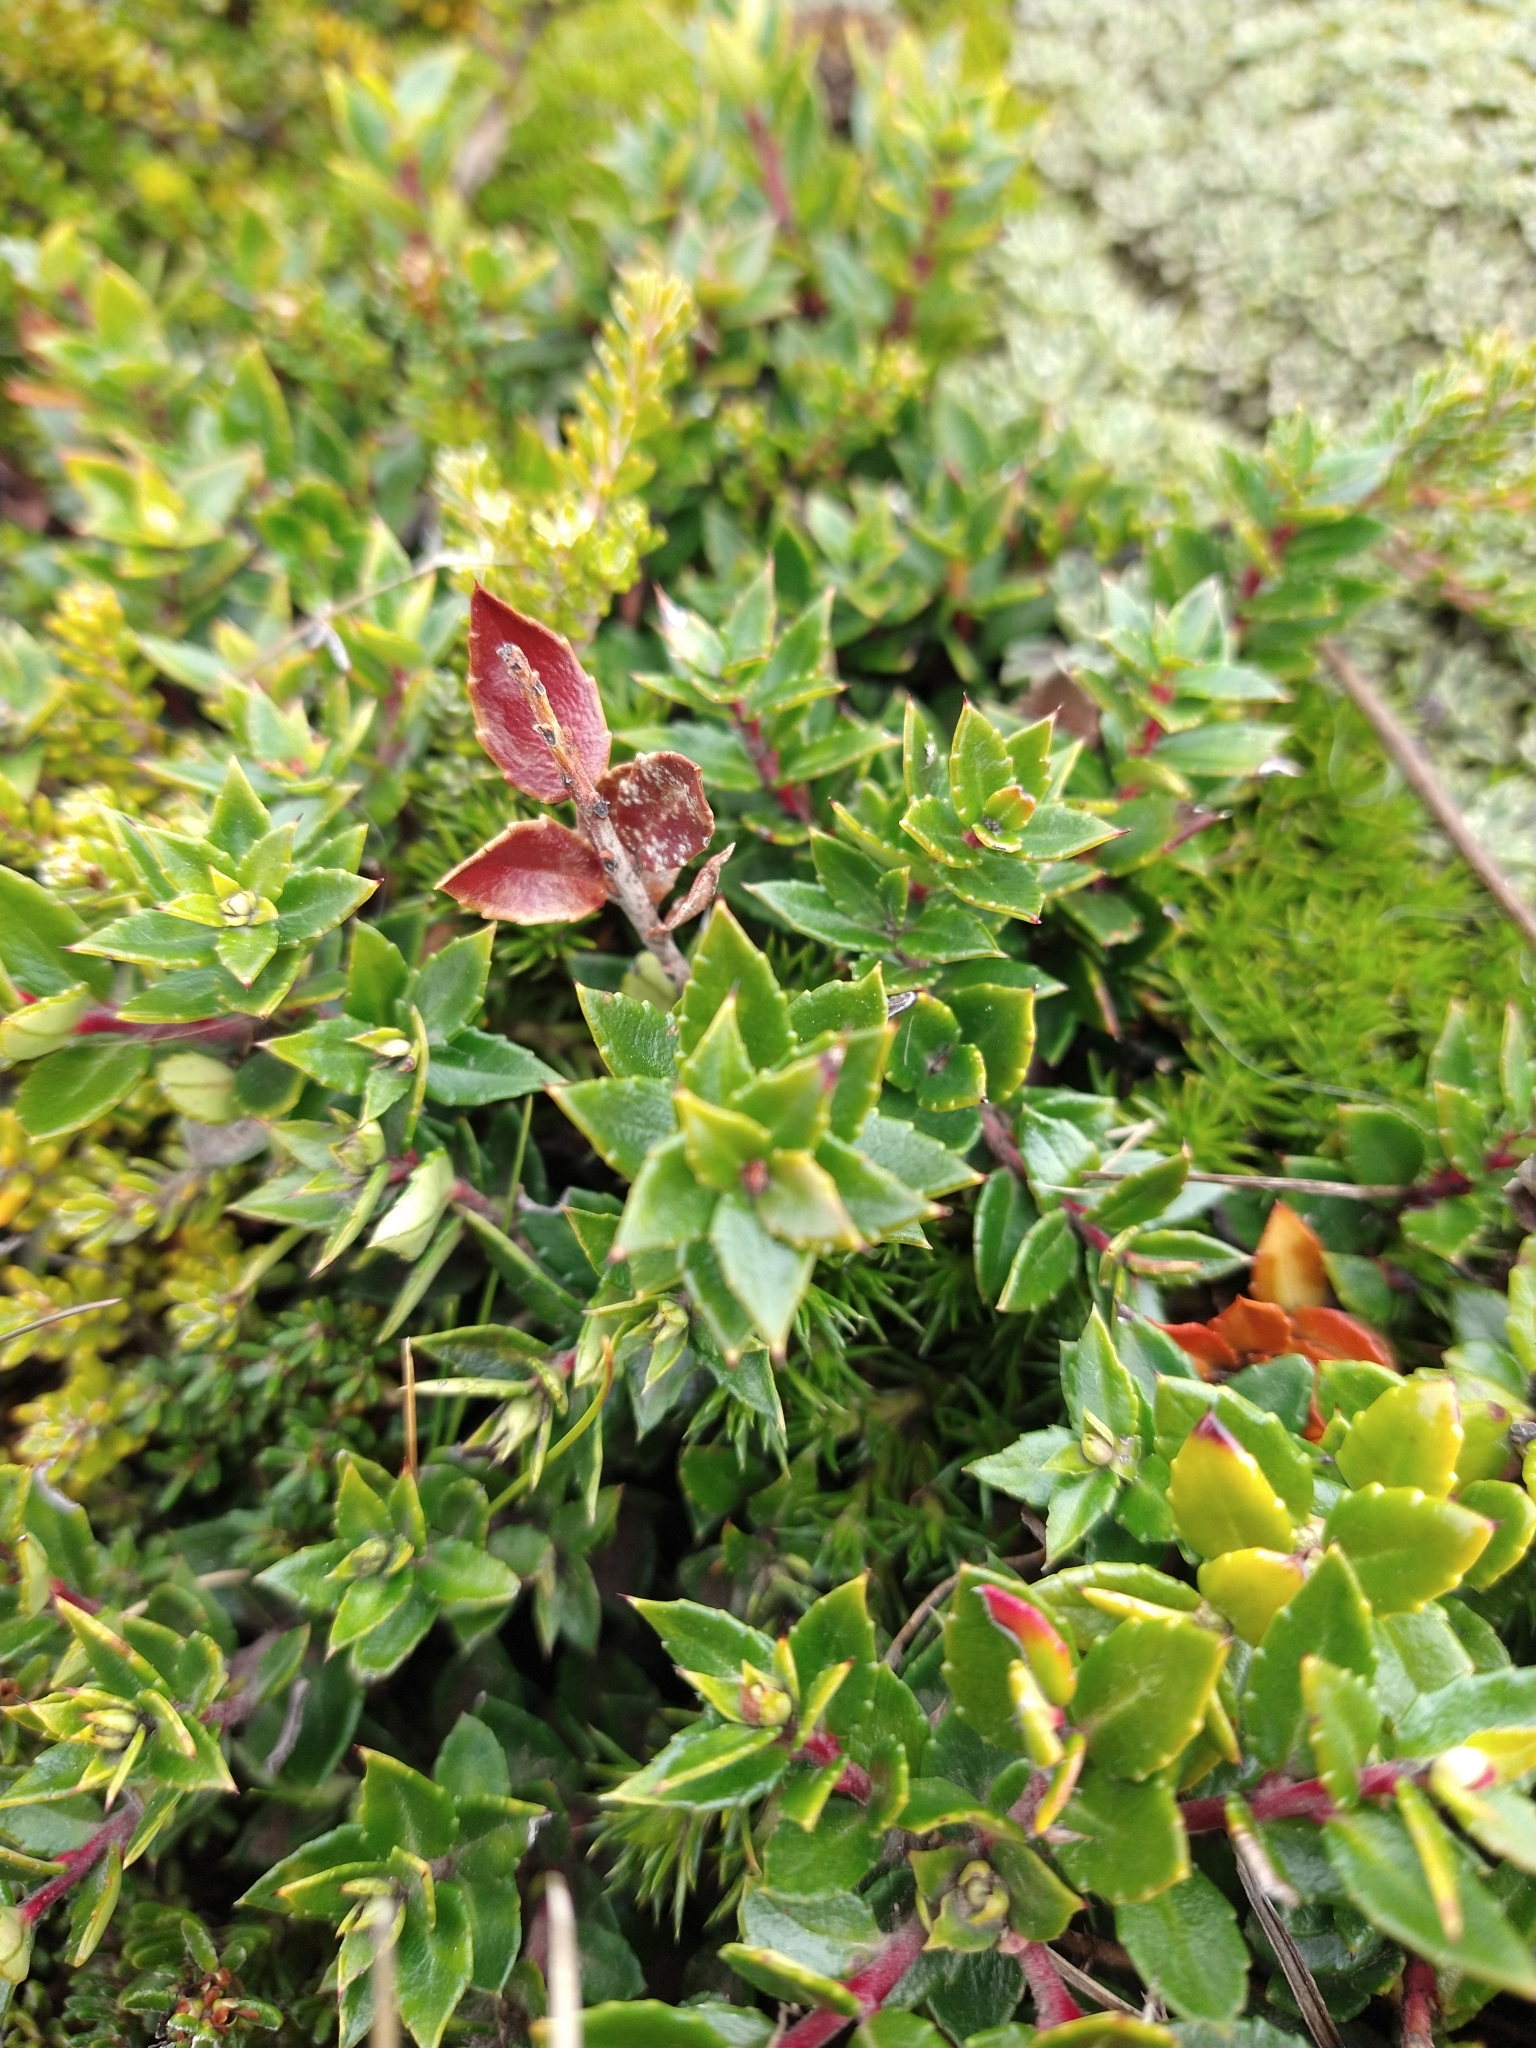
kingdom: Plantae
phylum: Tracheophyta
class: Magnoliopsida
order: Ericales
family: Ericaceae
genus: Gaultheria
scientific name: Gaultheria mucronata
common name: Prickly heath
